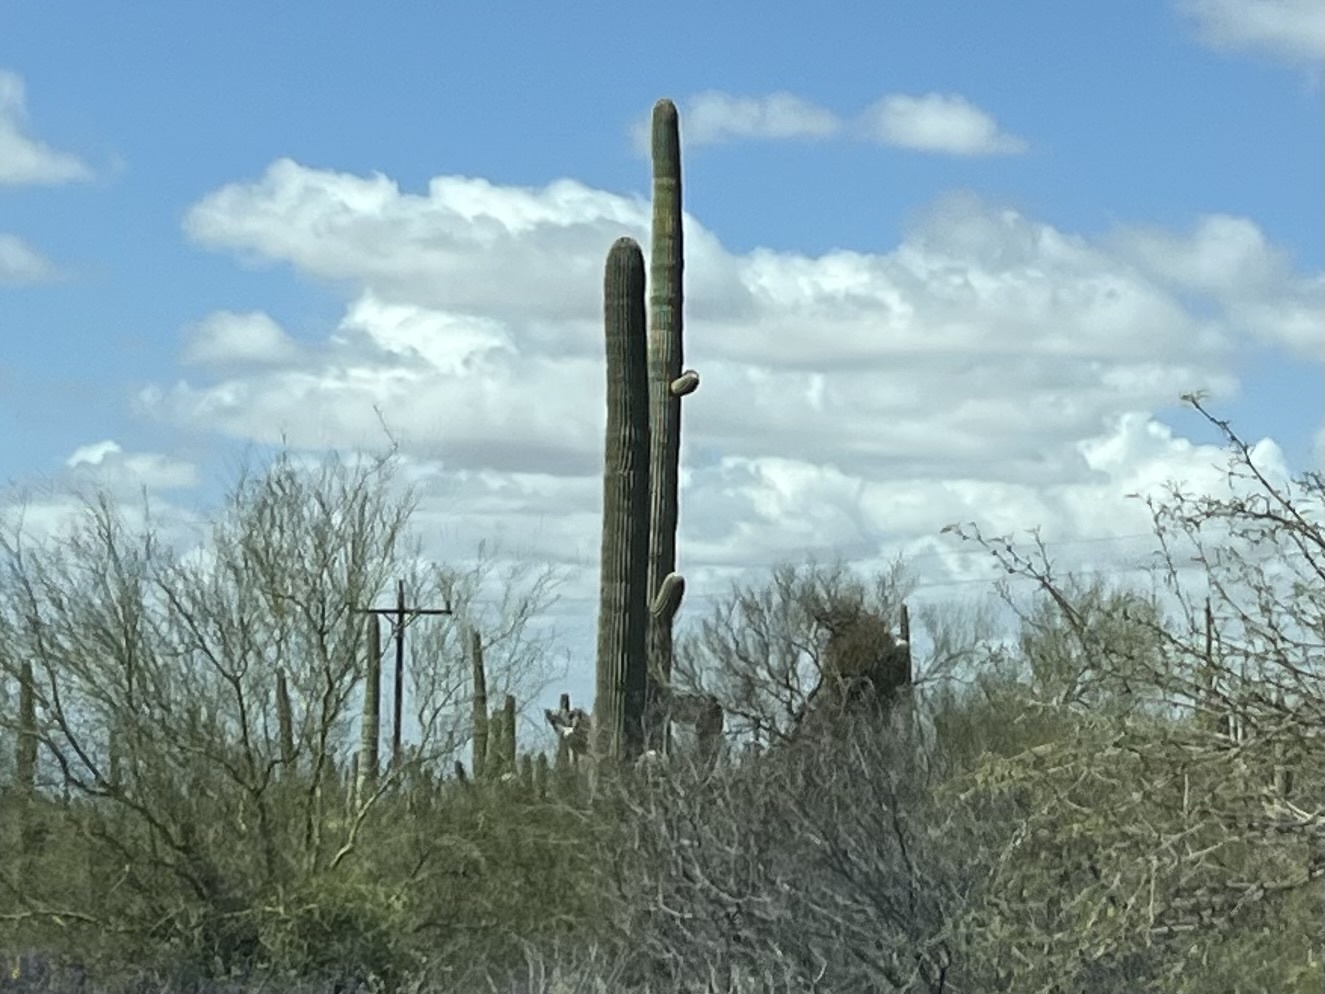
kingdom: Plantae
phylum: Tracheophyta
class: Magnoliopsida
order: Caryophyllales
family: Cactaceae
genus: Carnegiea
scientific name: Carnegiea gigantea
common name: Saguaro
